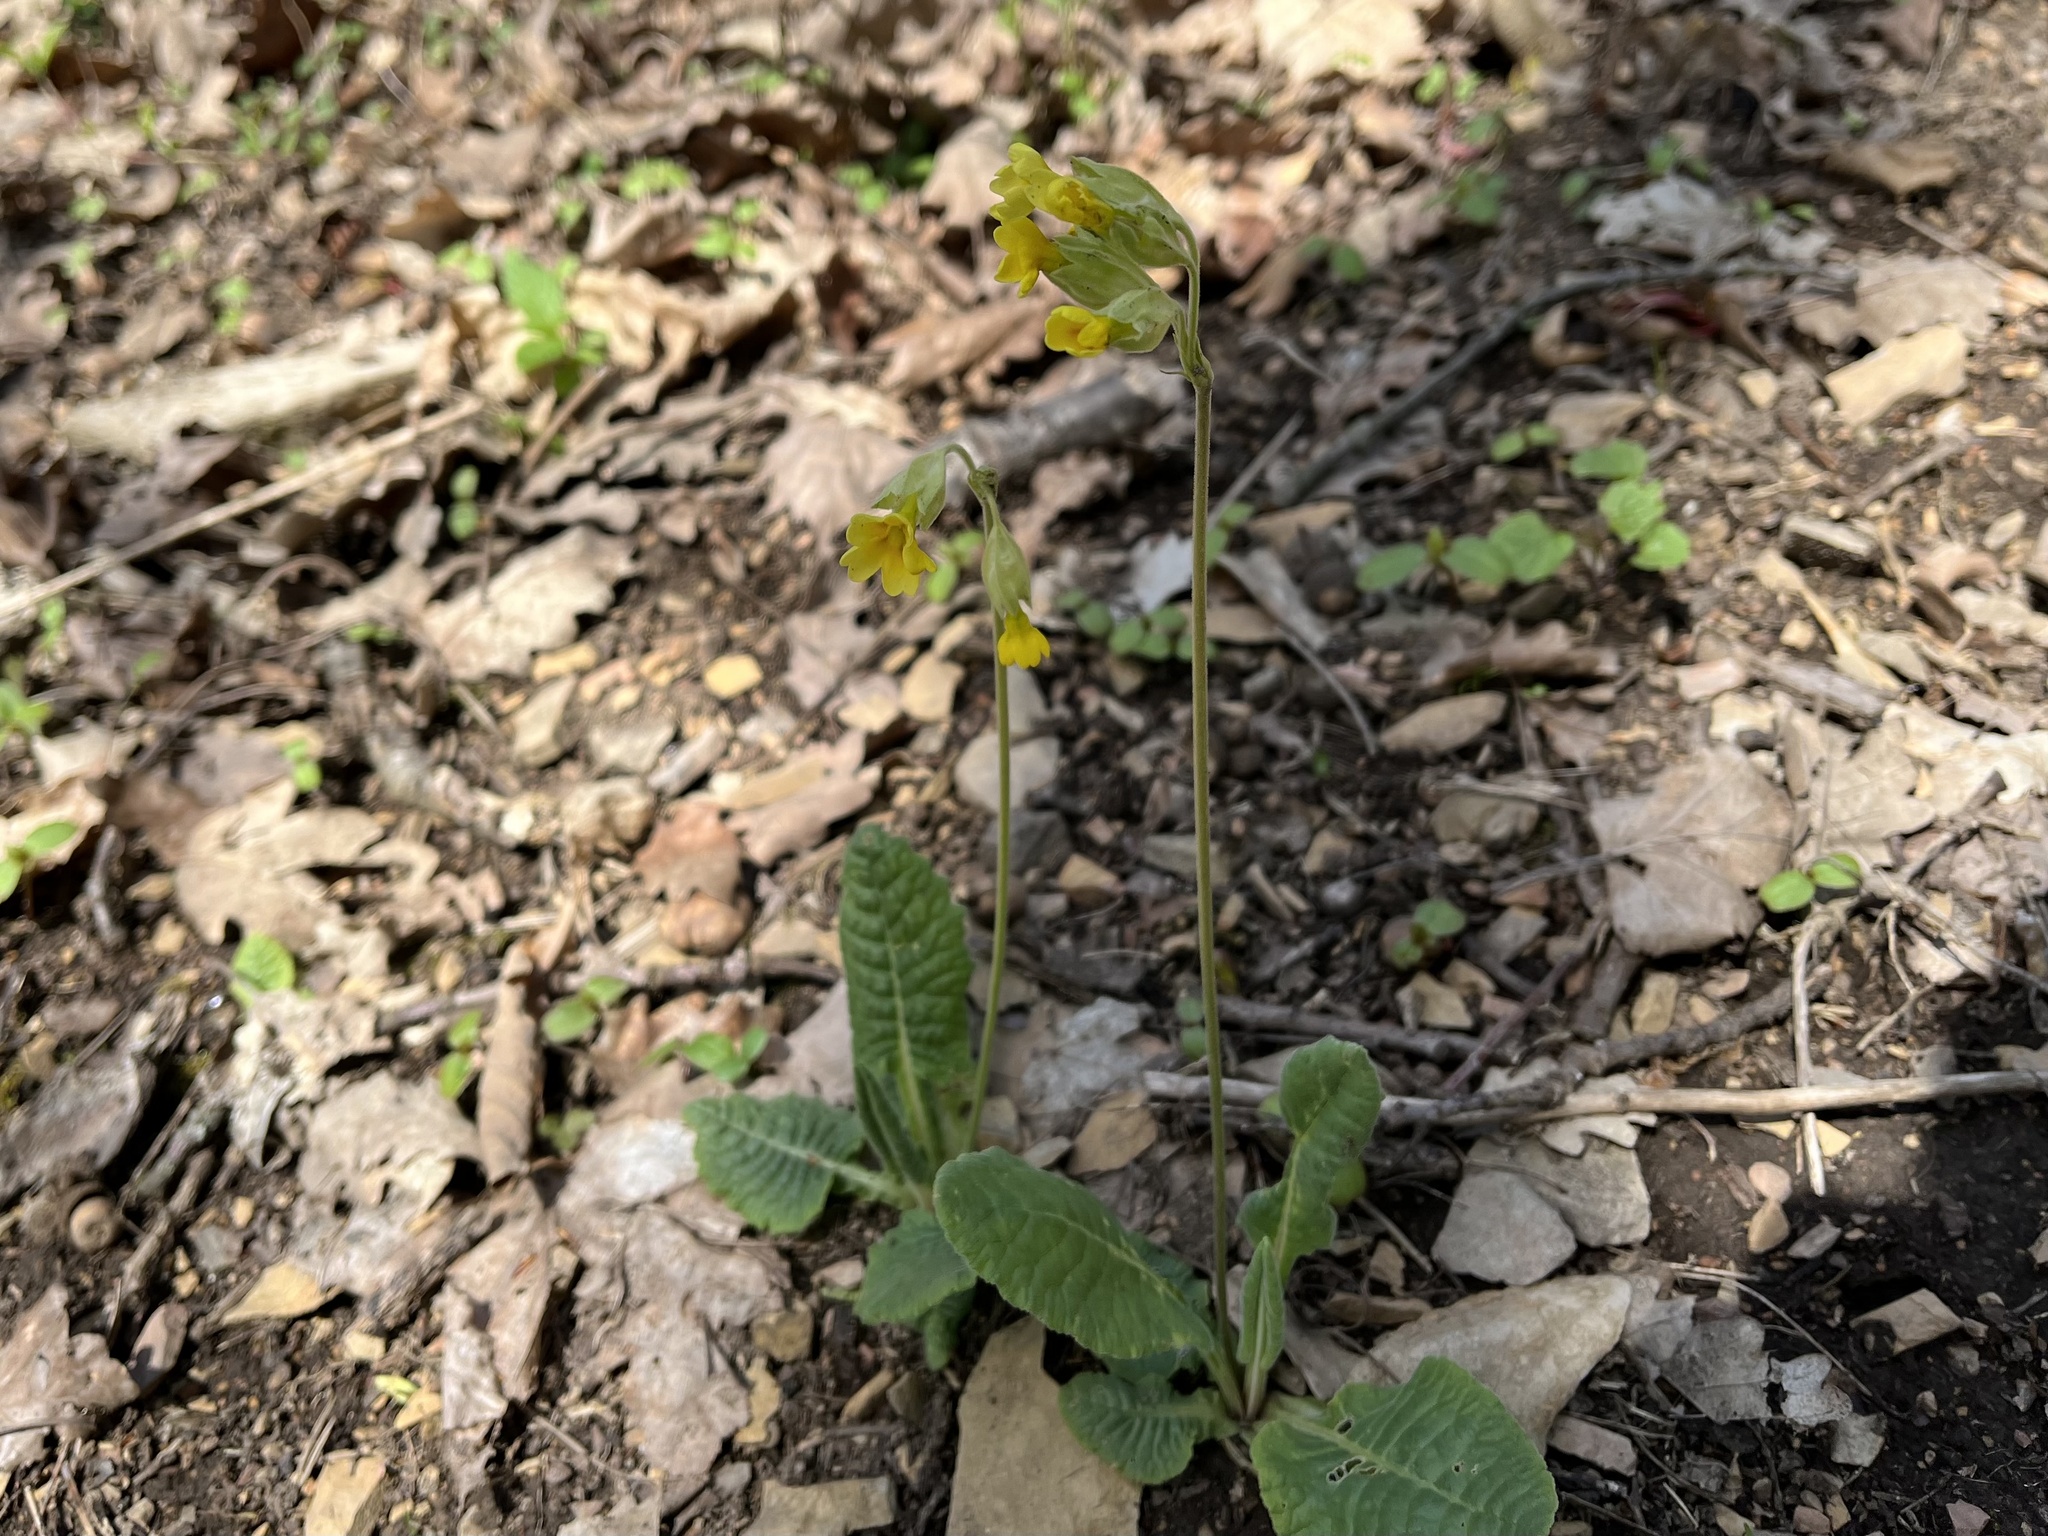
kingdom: Plantae
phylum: Tracheophyta
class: Magnoliopsida
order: Ericales
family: Primulaceae
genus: Primula
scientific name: Primula veris
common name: Cowslip
